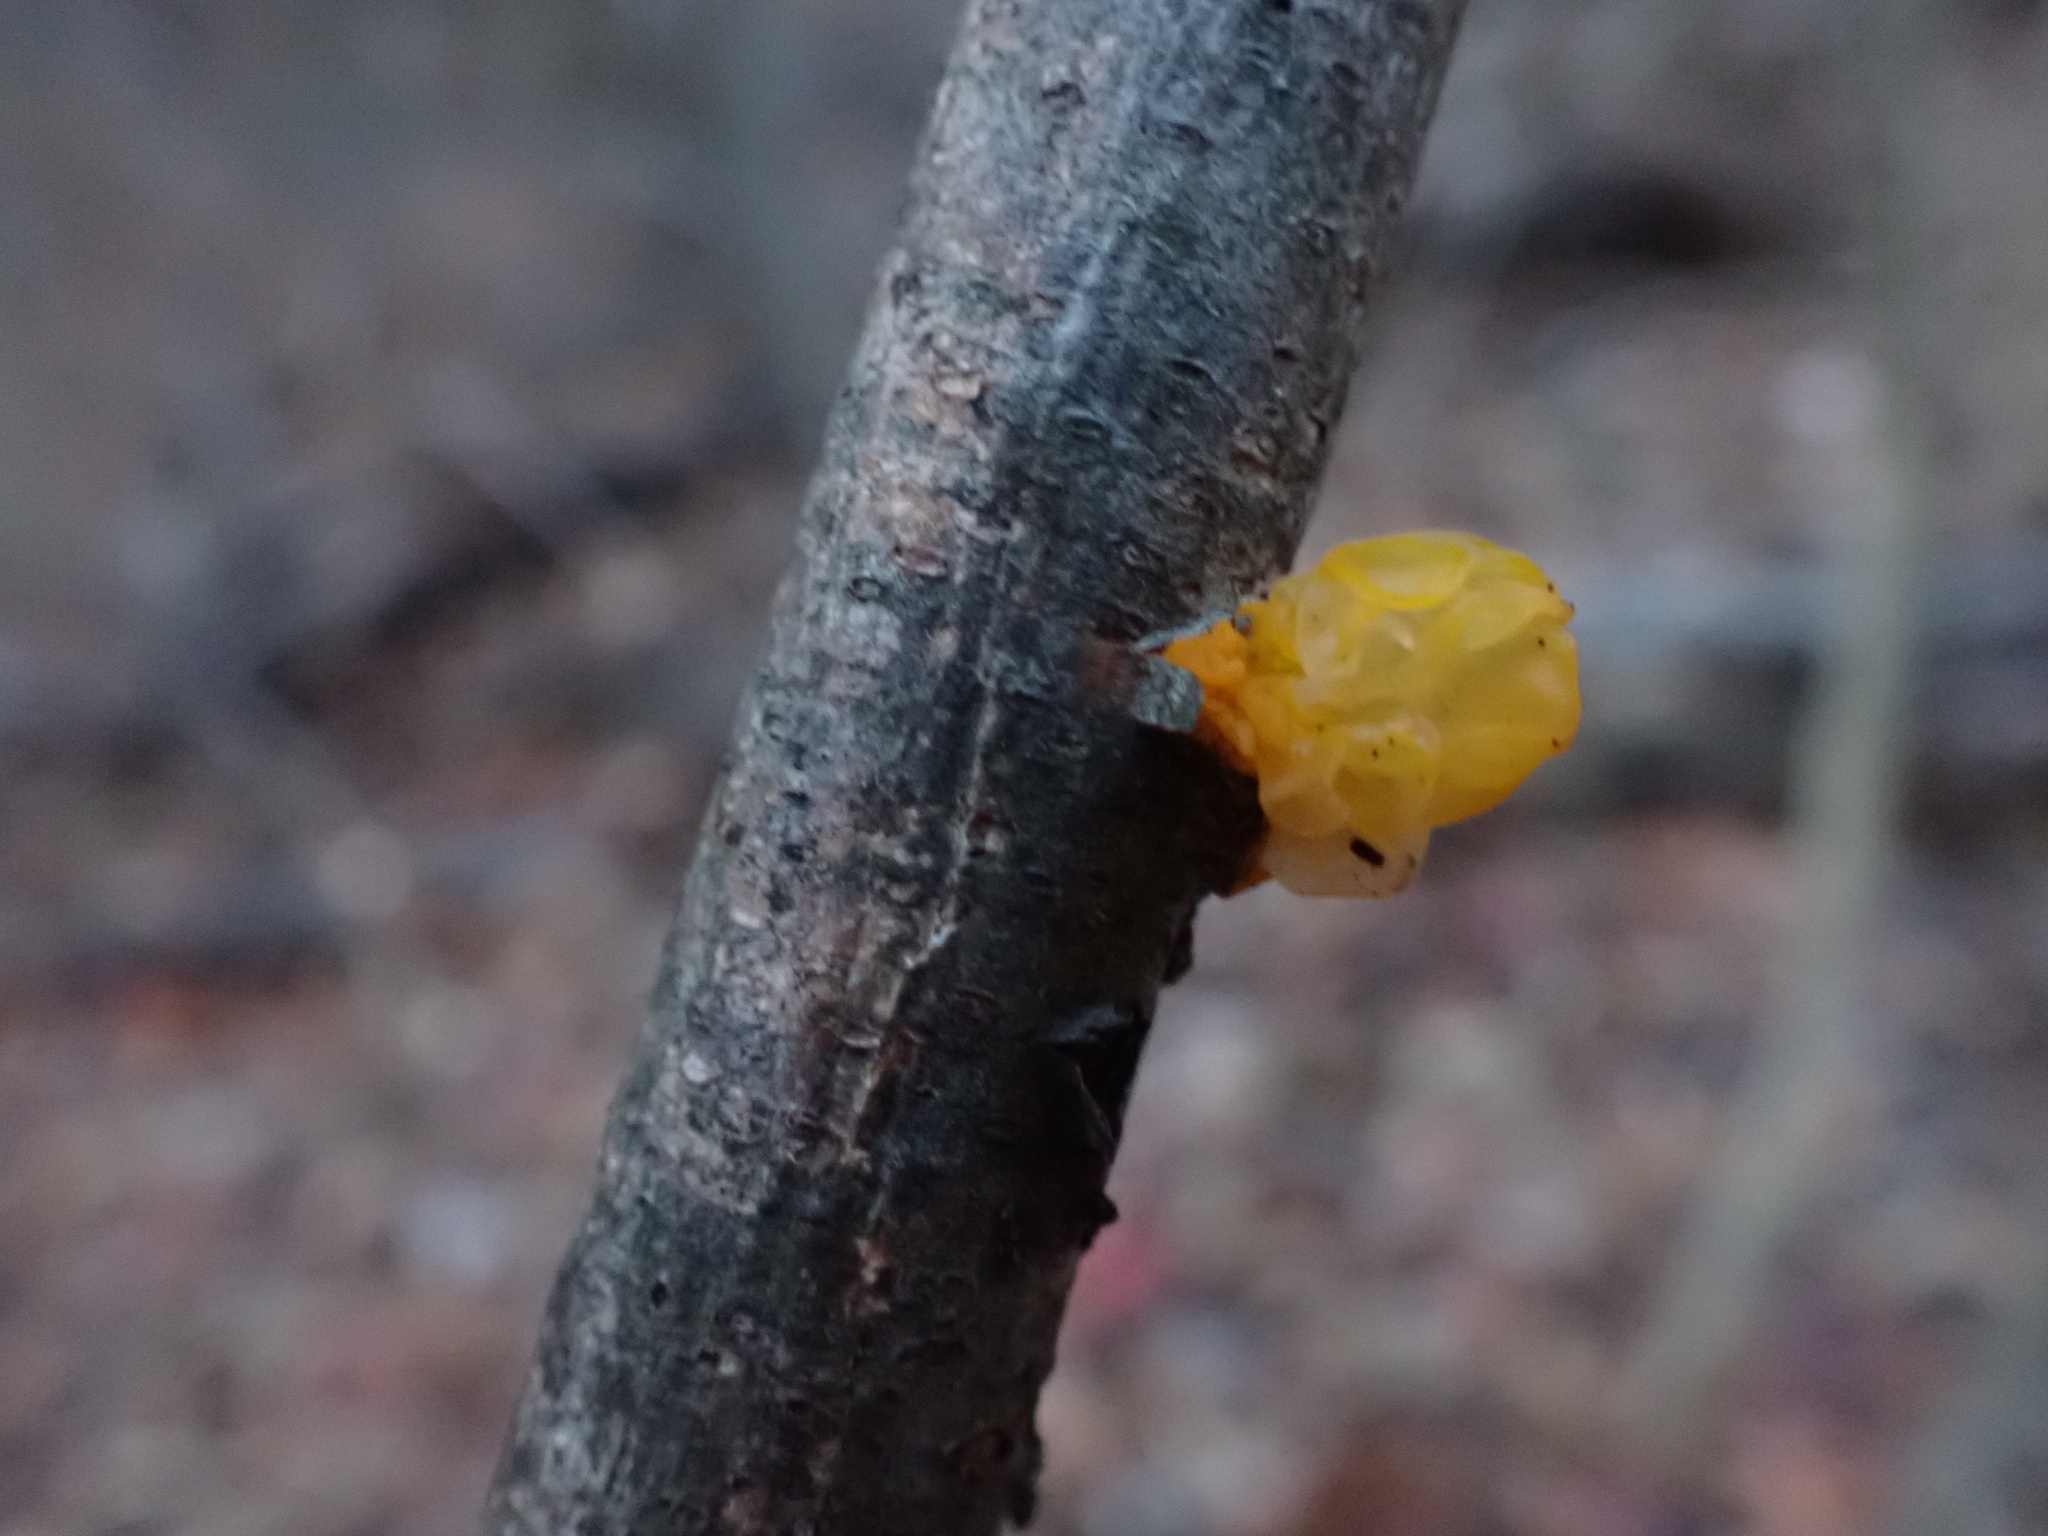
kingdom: Fungi
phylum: Basidiomycota
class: Tremellomycetes
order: Tremellales
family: Tremellaceae
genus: Tremella
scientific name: Tremella mesenterica
